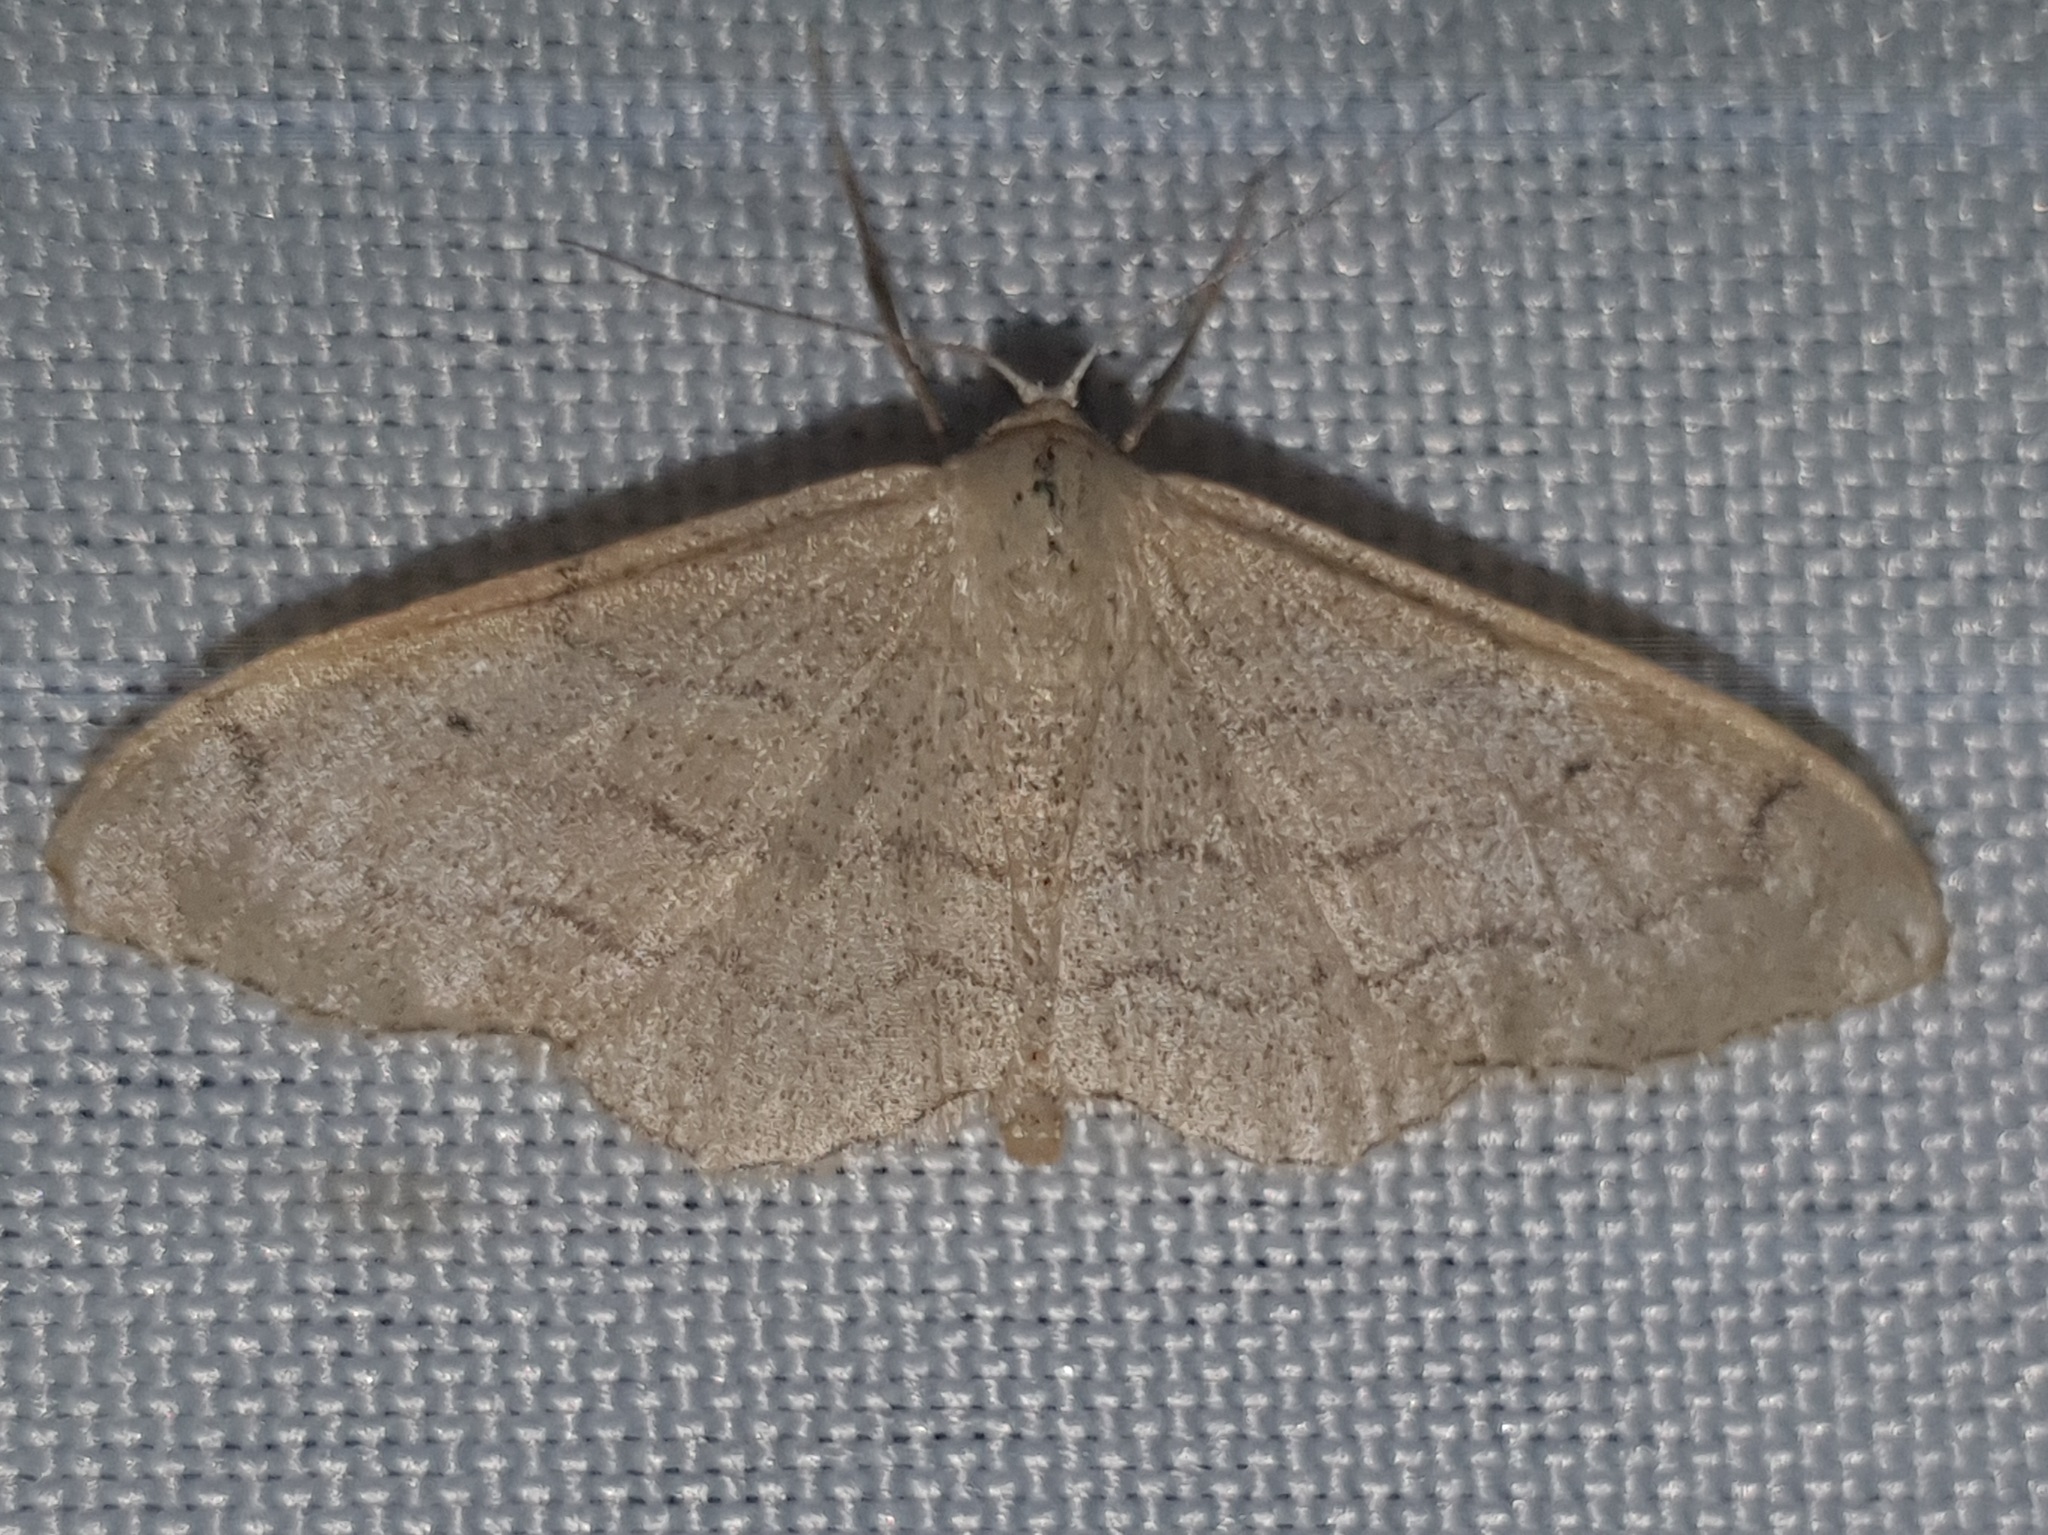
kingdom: Animalia
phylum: Arthropoda
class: Insecta
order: Lepidoptera
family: Geometridae
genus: Idaea
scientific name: Idaea aversata
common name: Riband wave
